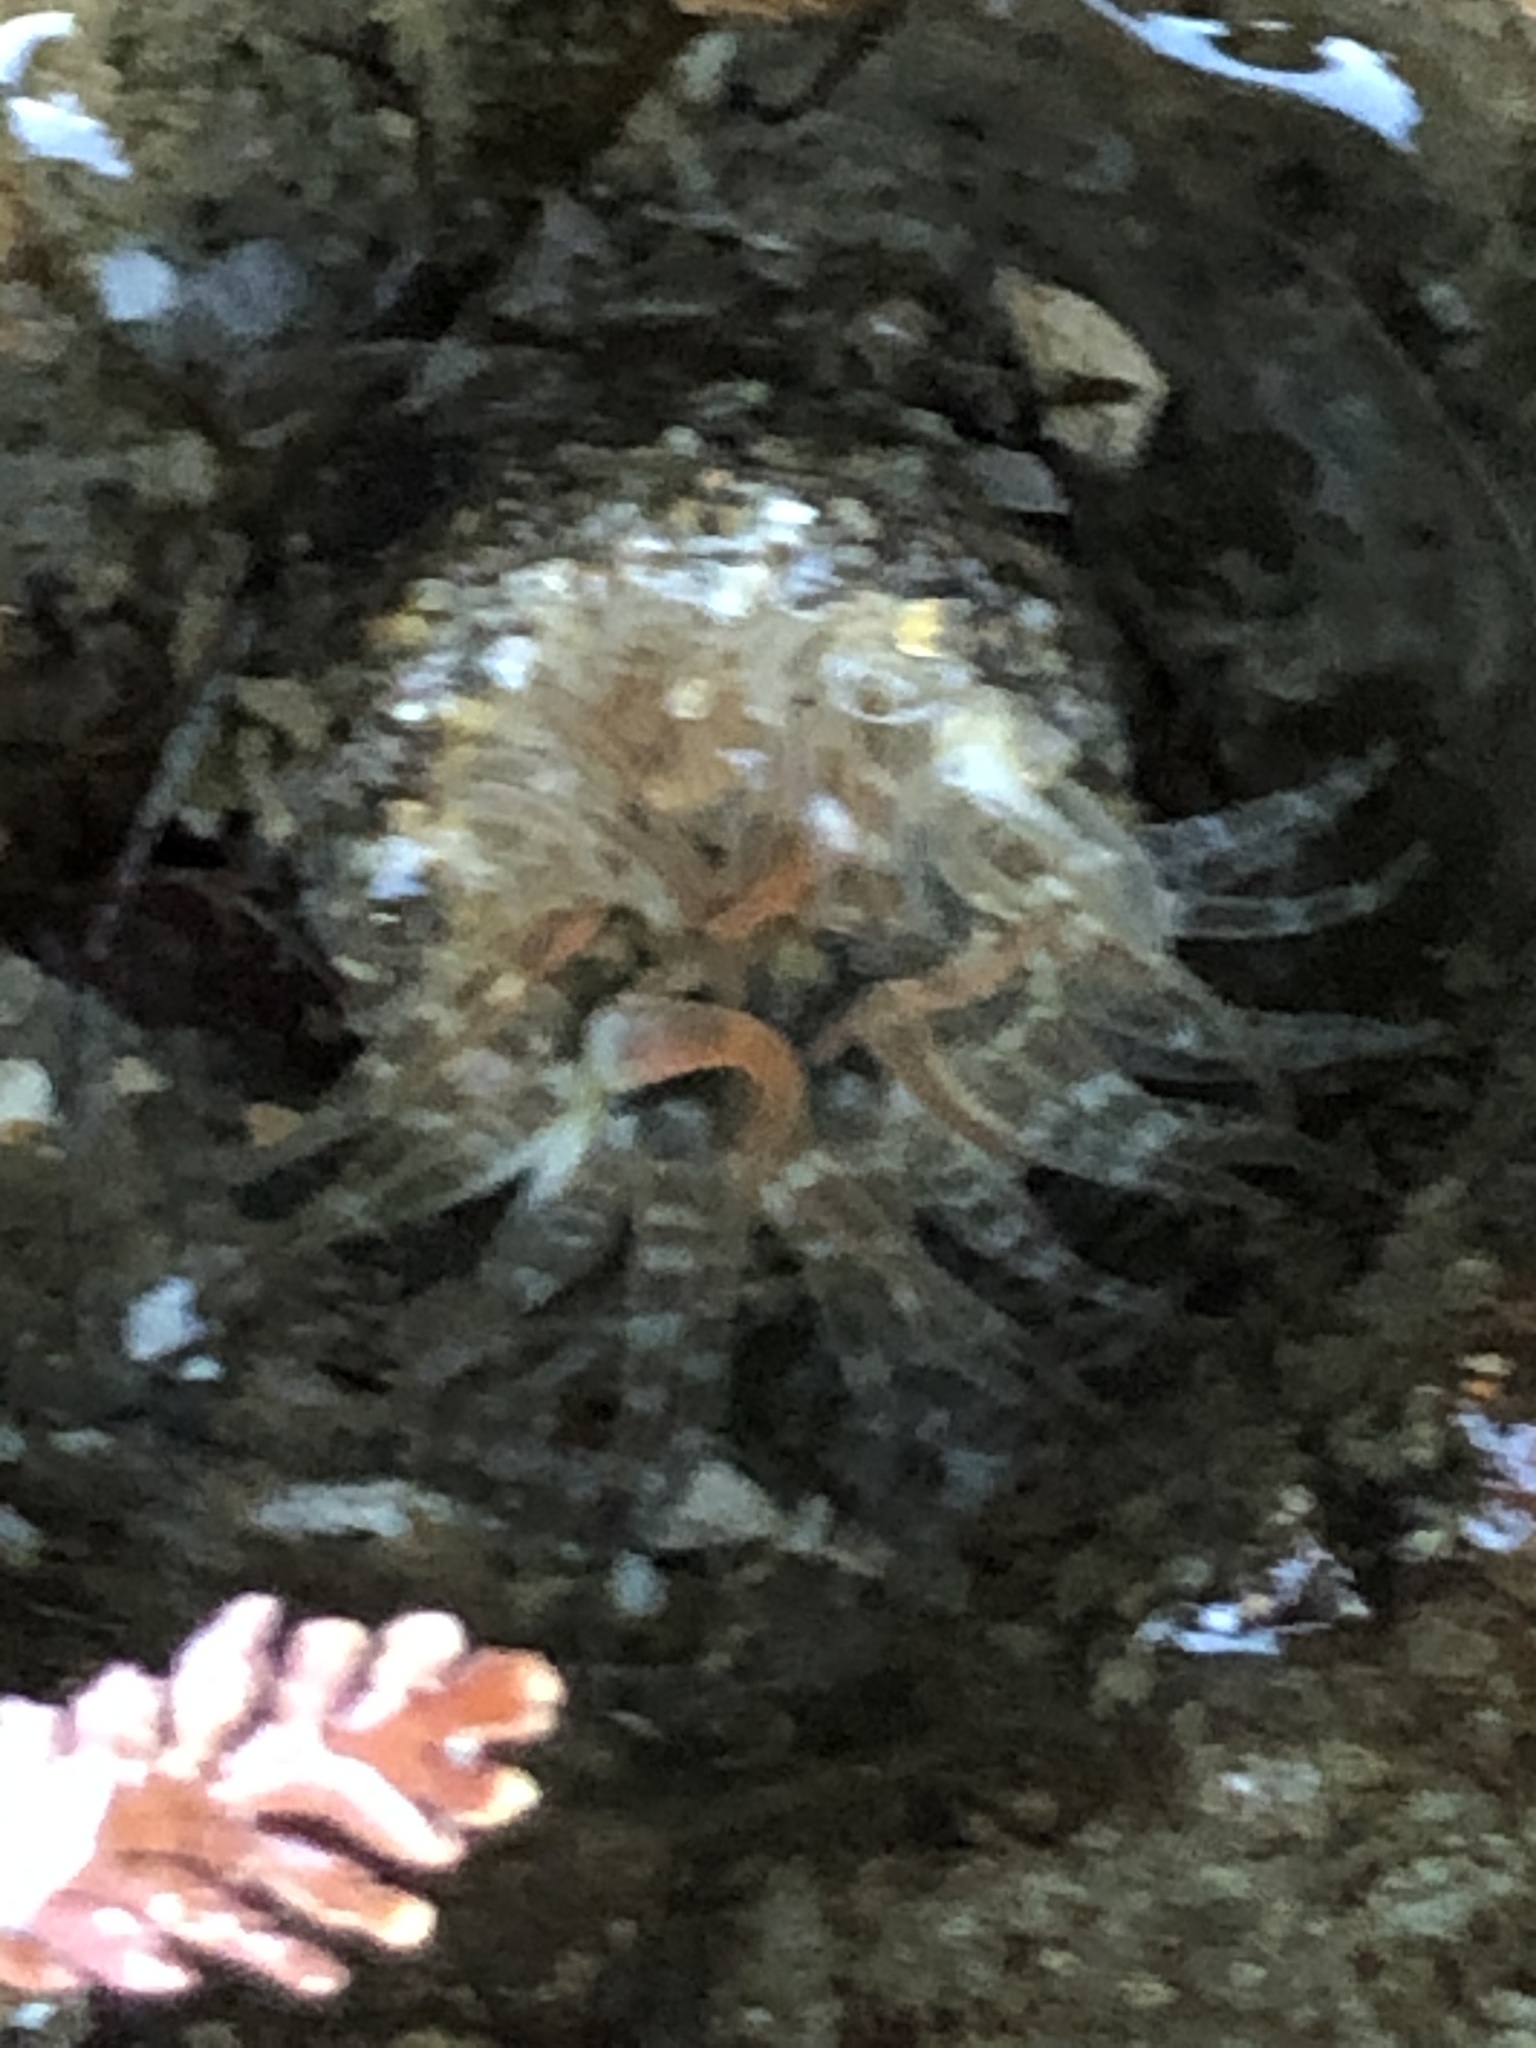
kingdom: Animalia
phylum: Cnidaria
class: Anthozoa
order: Actiniaria
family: Actiniidae
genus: Anthopleura
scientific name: Anthopleura artemisia
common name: Buried sea anemone
